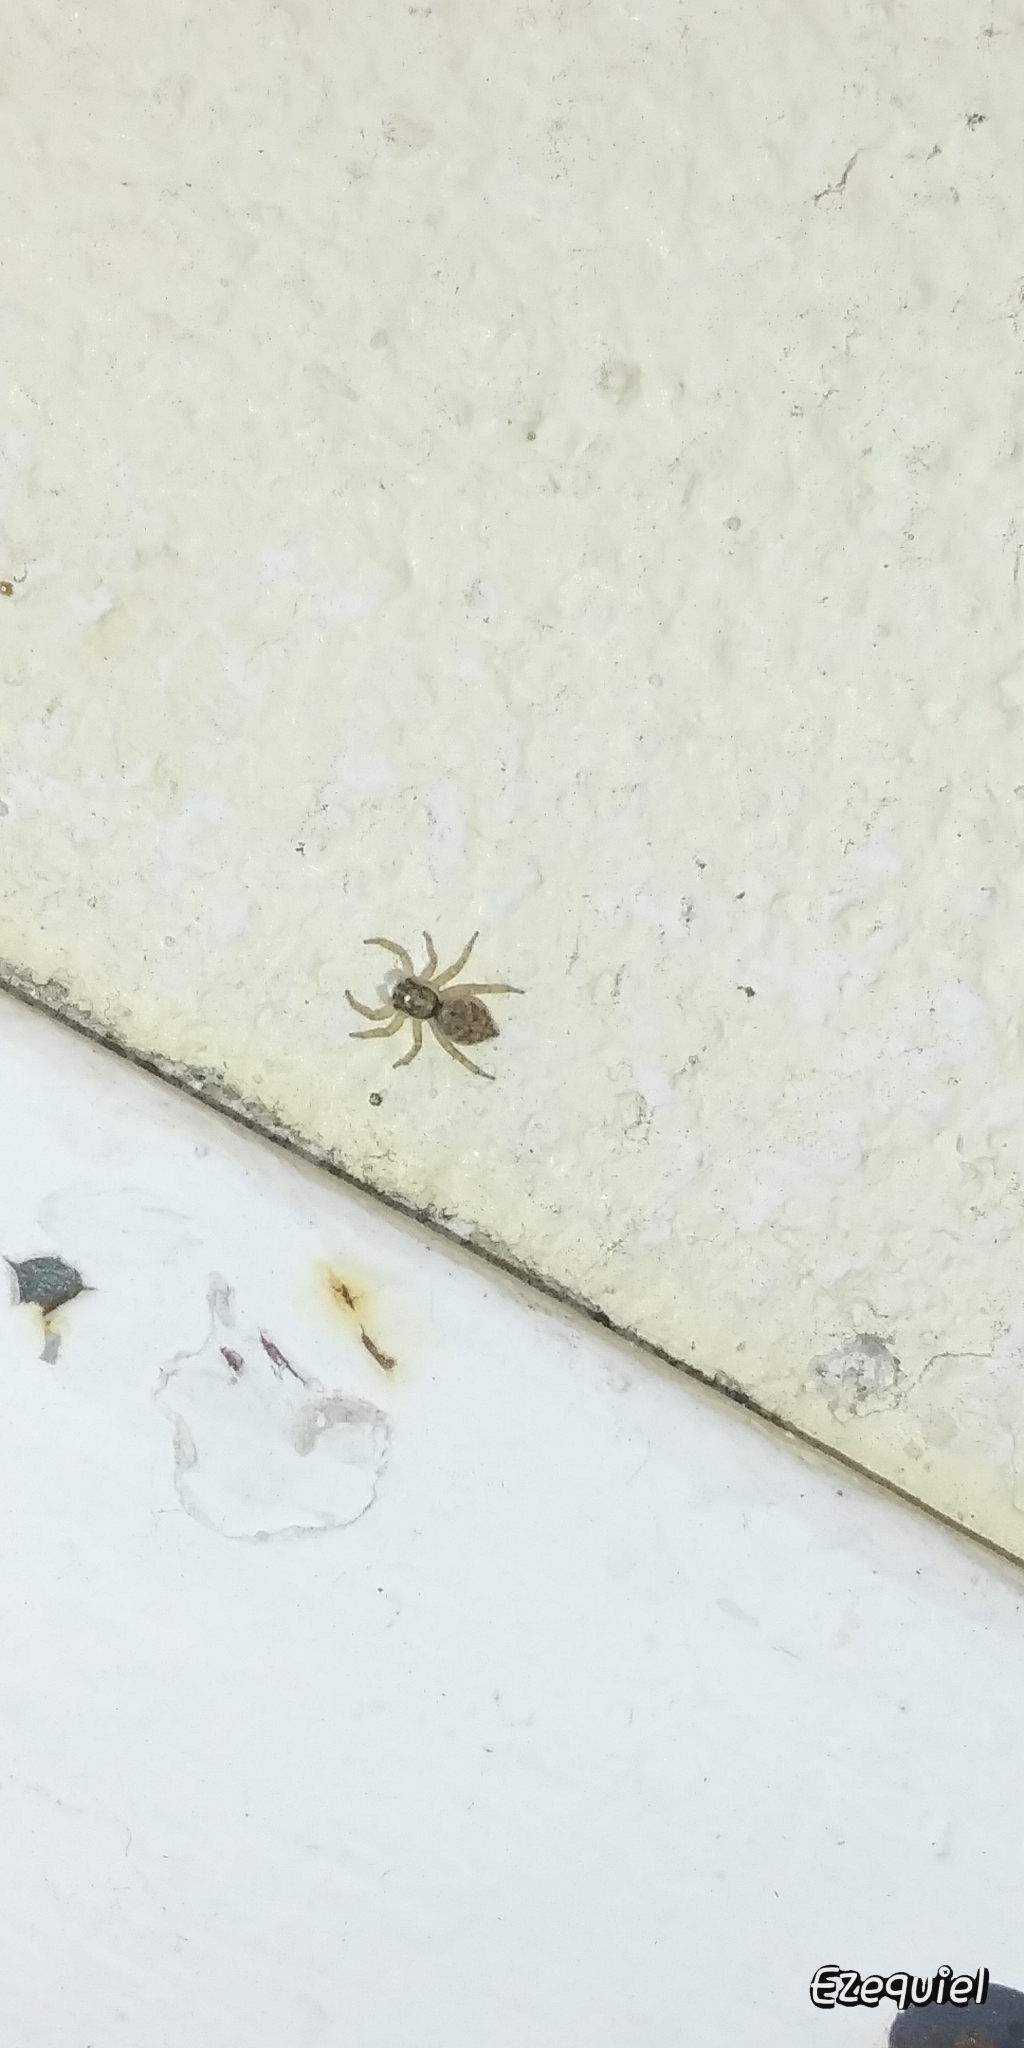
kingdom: Animalia
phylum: Arthropoda
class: Arachnida
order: Araneae
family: Salticidae
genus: Menemerus
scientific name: Menemerus semilimbatus
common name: Jumping spider
